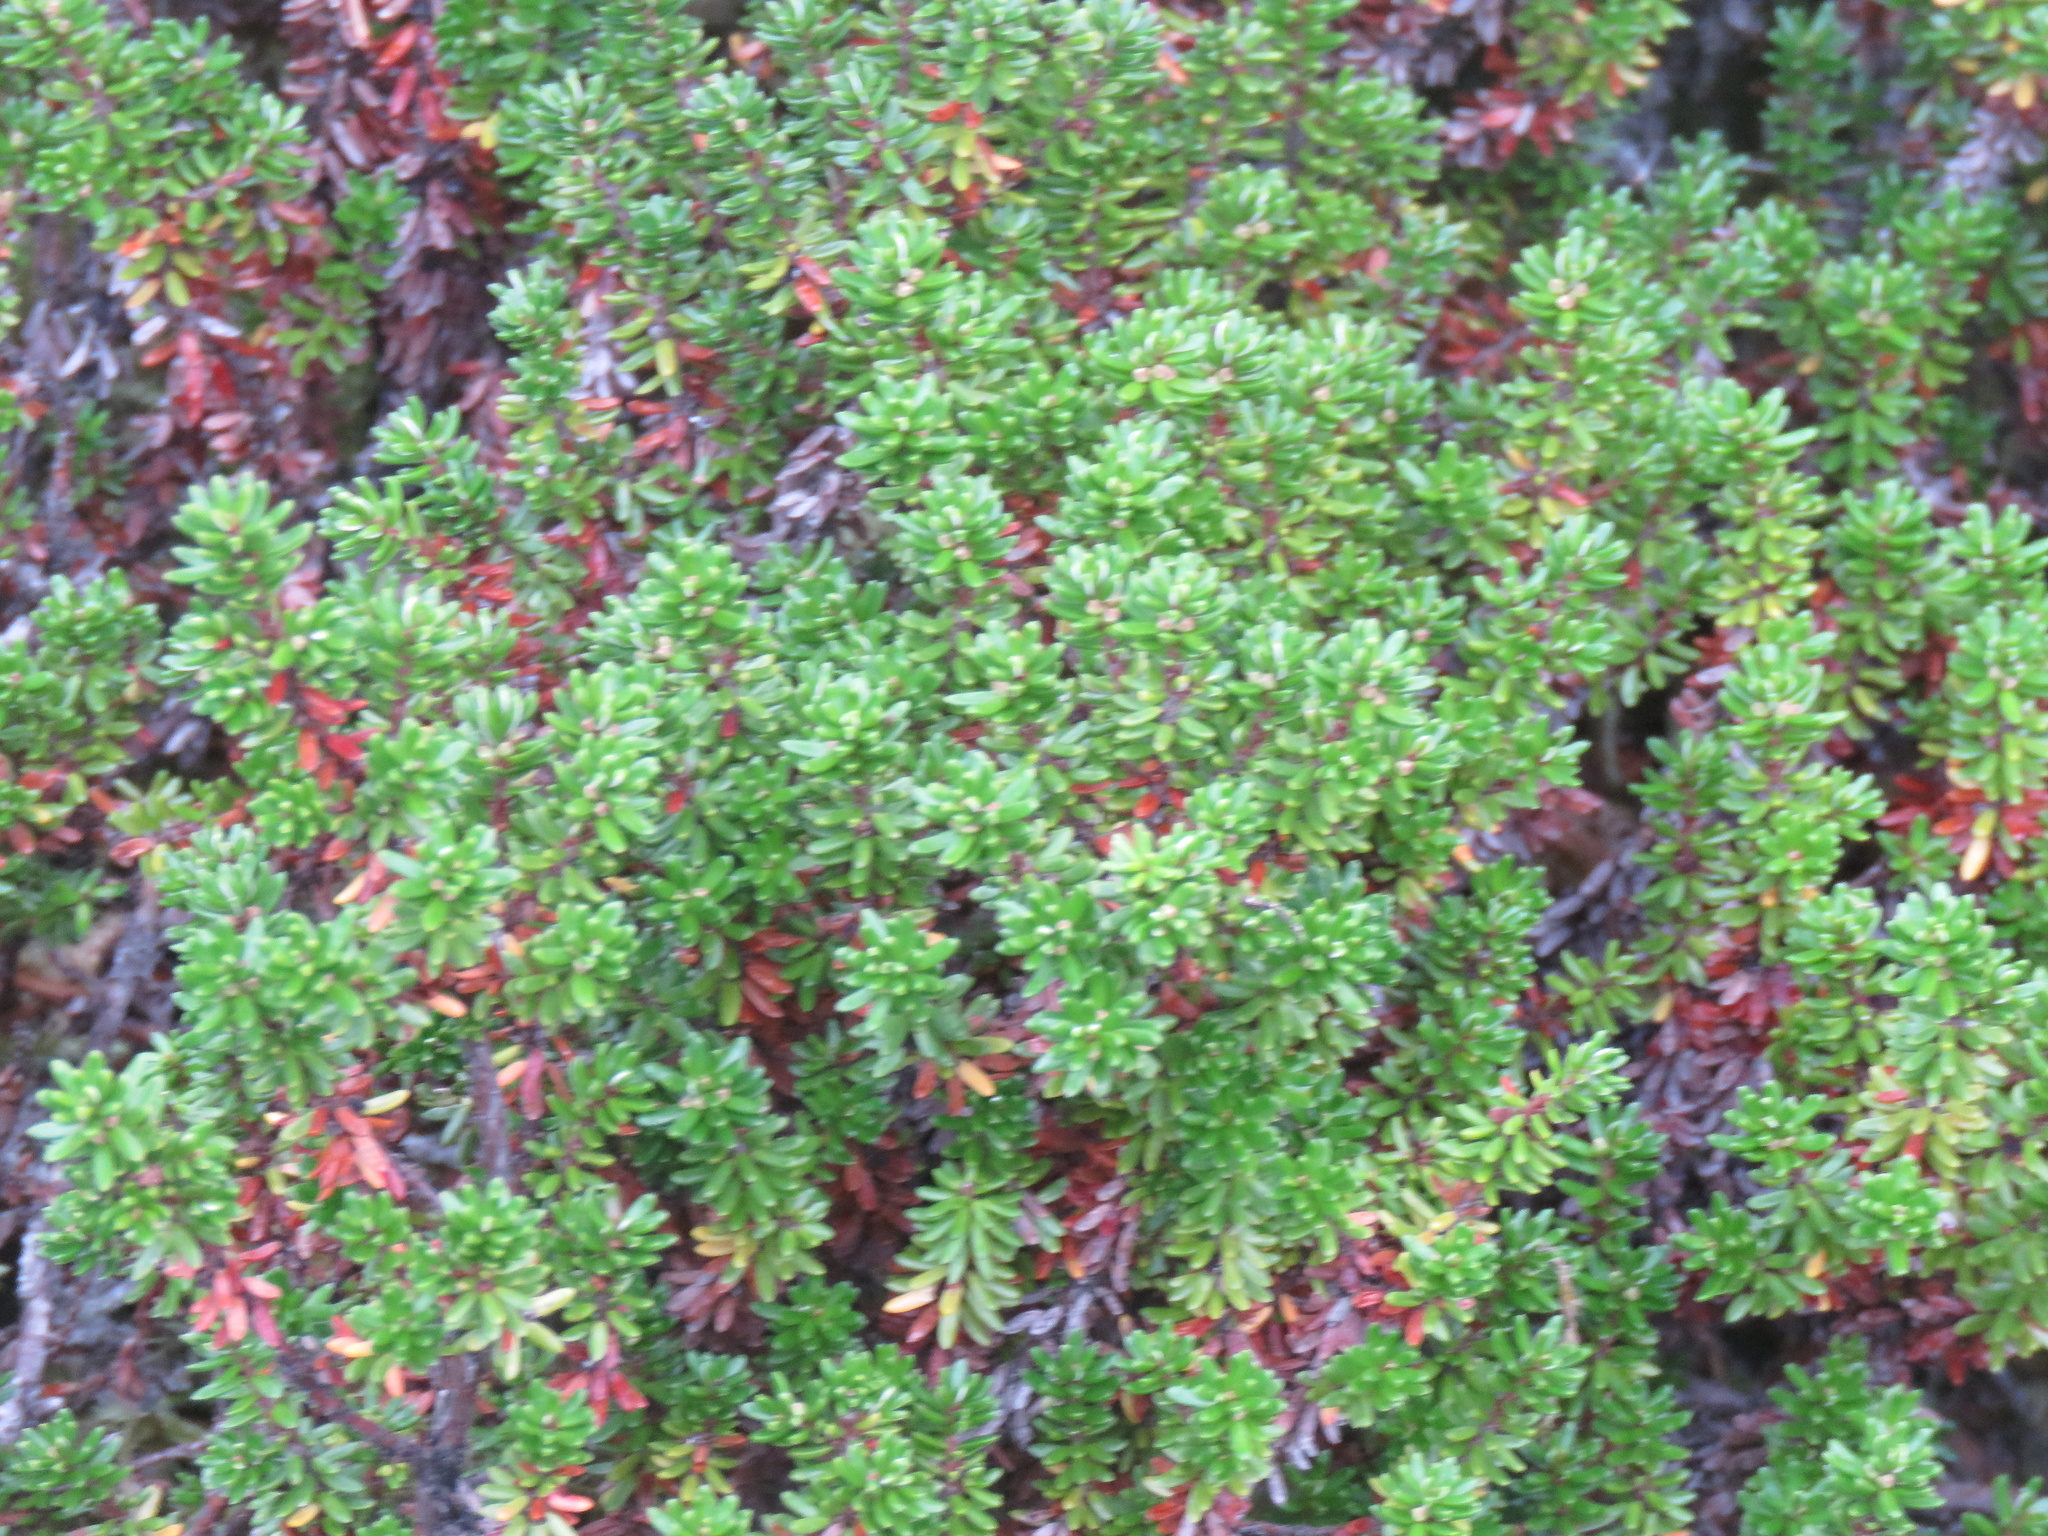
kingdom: Plantae
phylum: Tracheophyta
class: Magnoliopsida
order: Ericales
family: Ericaceae
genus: Empetrum
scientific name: Empetrum nigrum
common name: Black crowberry
